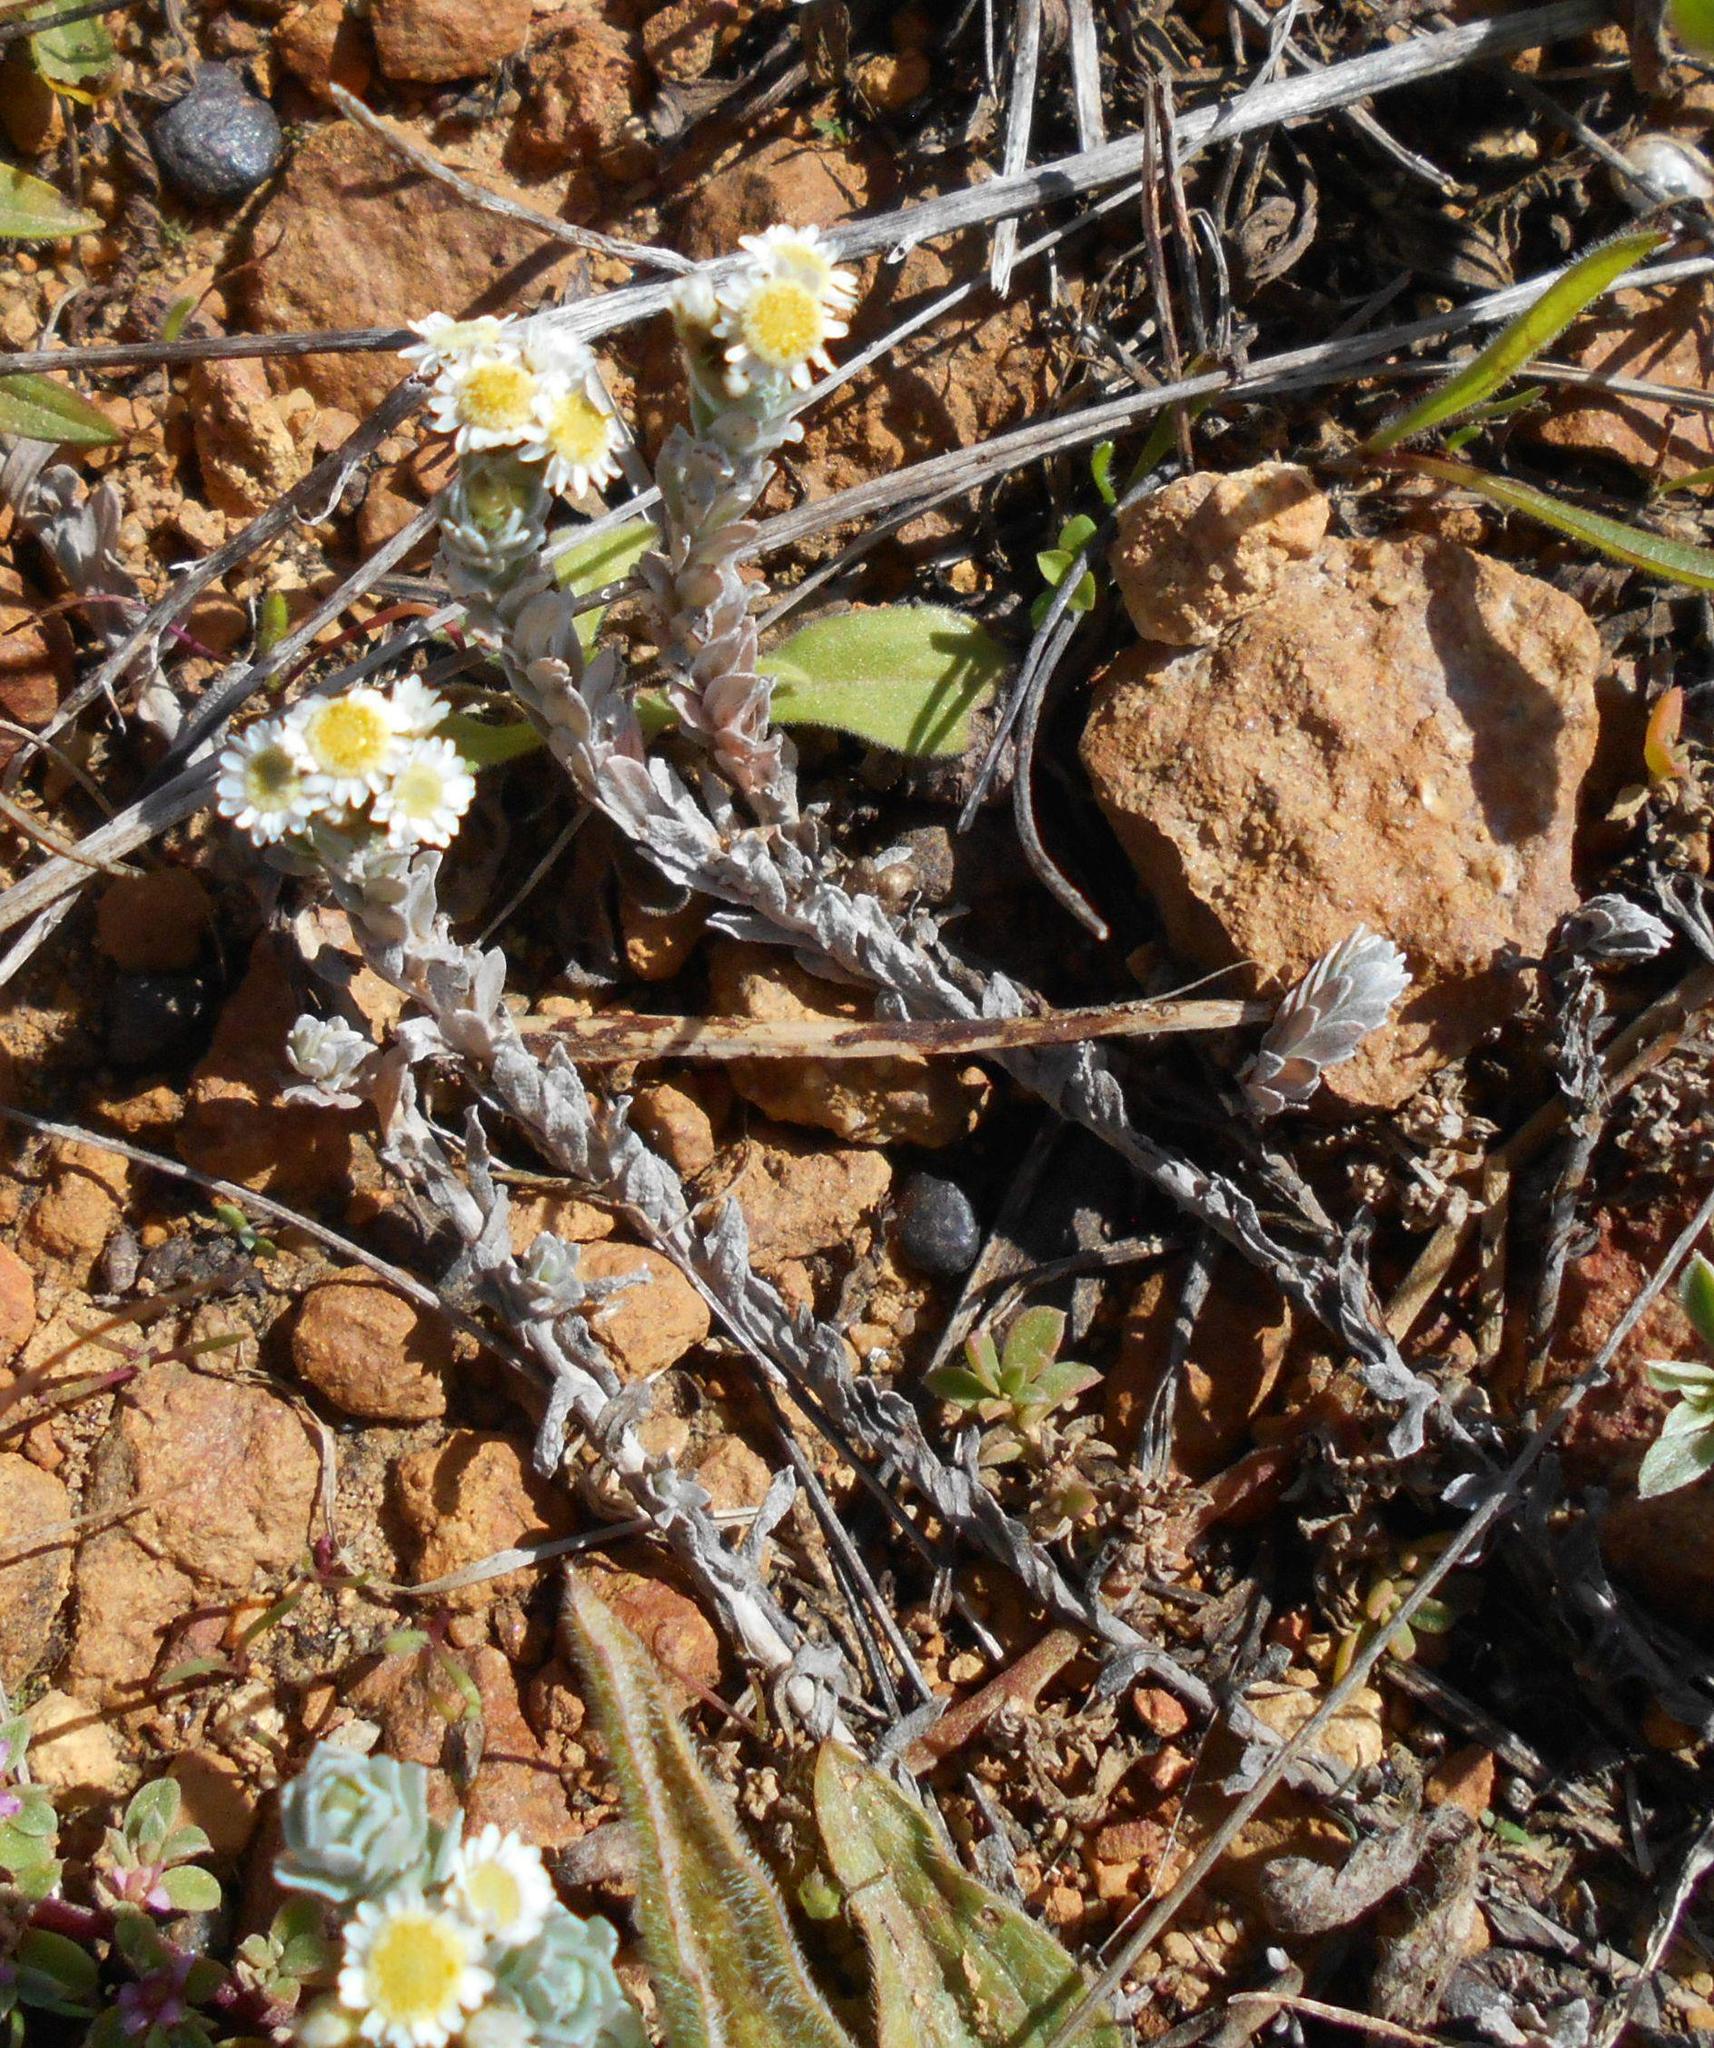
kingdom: Plantae
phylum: Tracheophyta
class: Magnoliopsida
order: Asterales
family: Asteraceae
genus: Gnaphalium
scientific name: Gnaphalium declinatum
